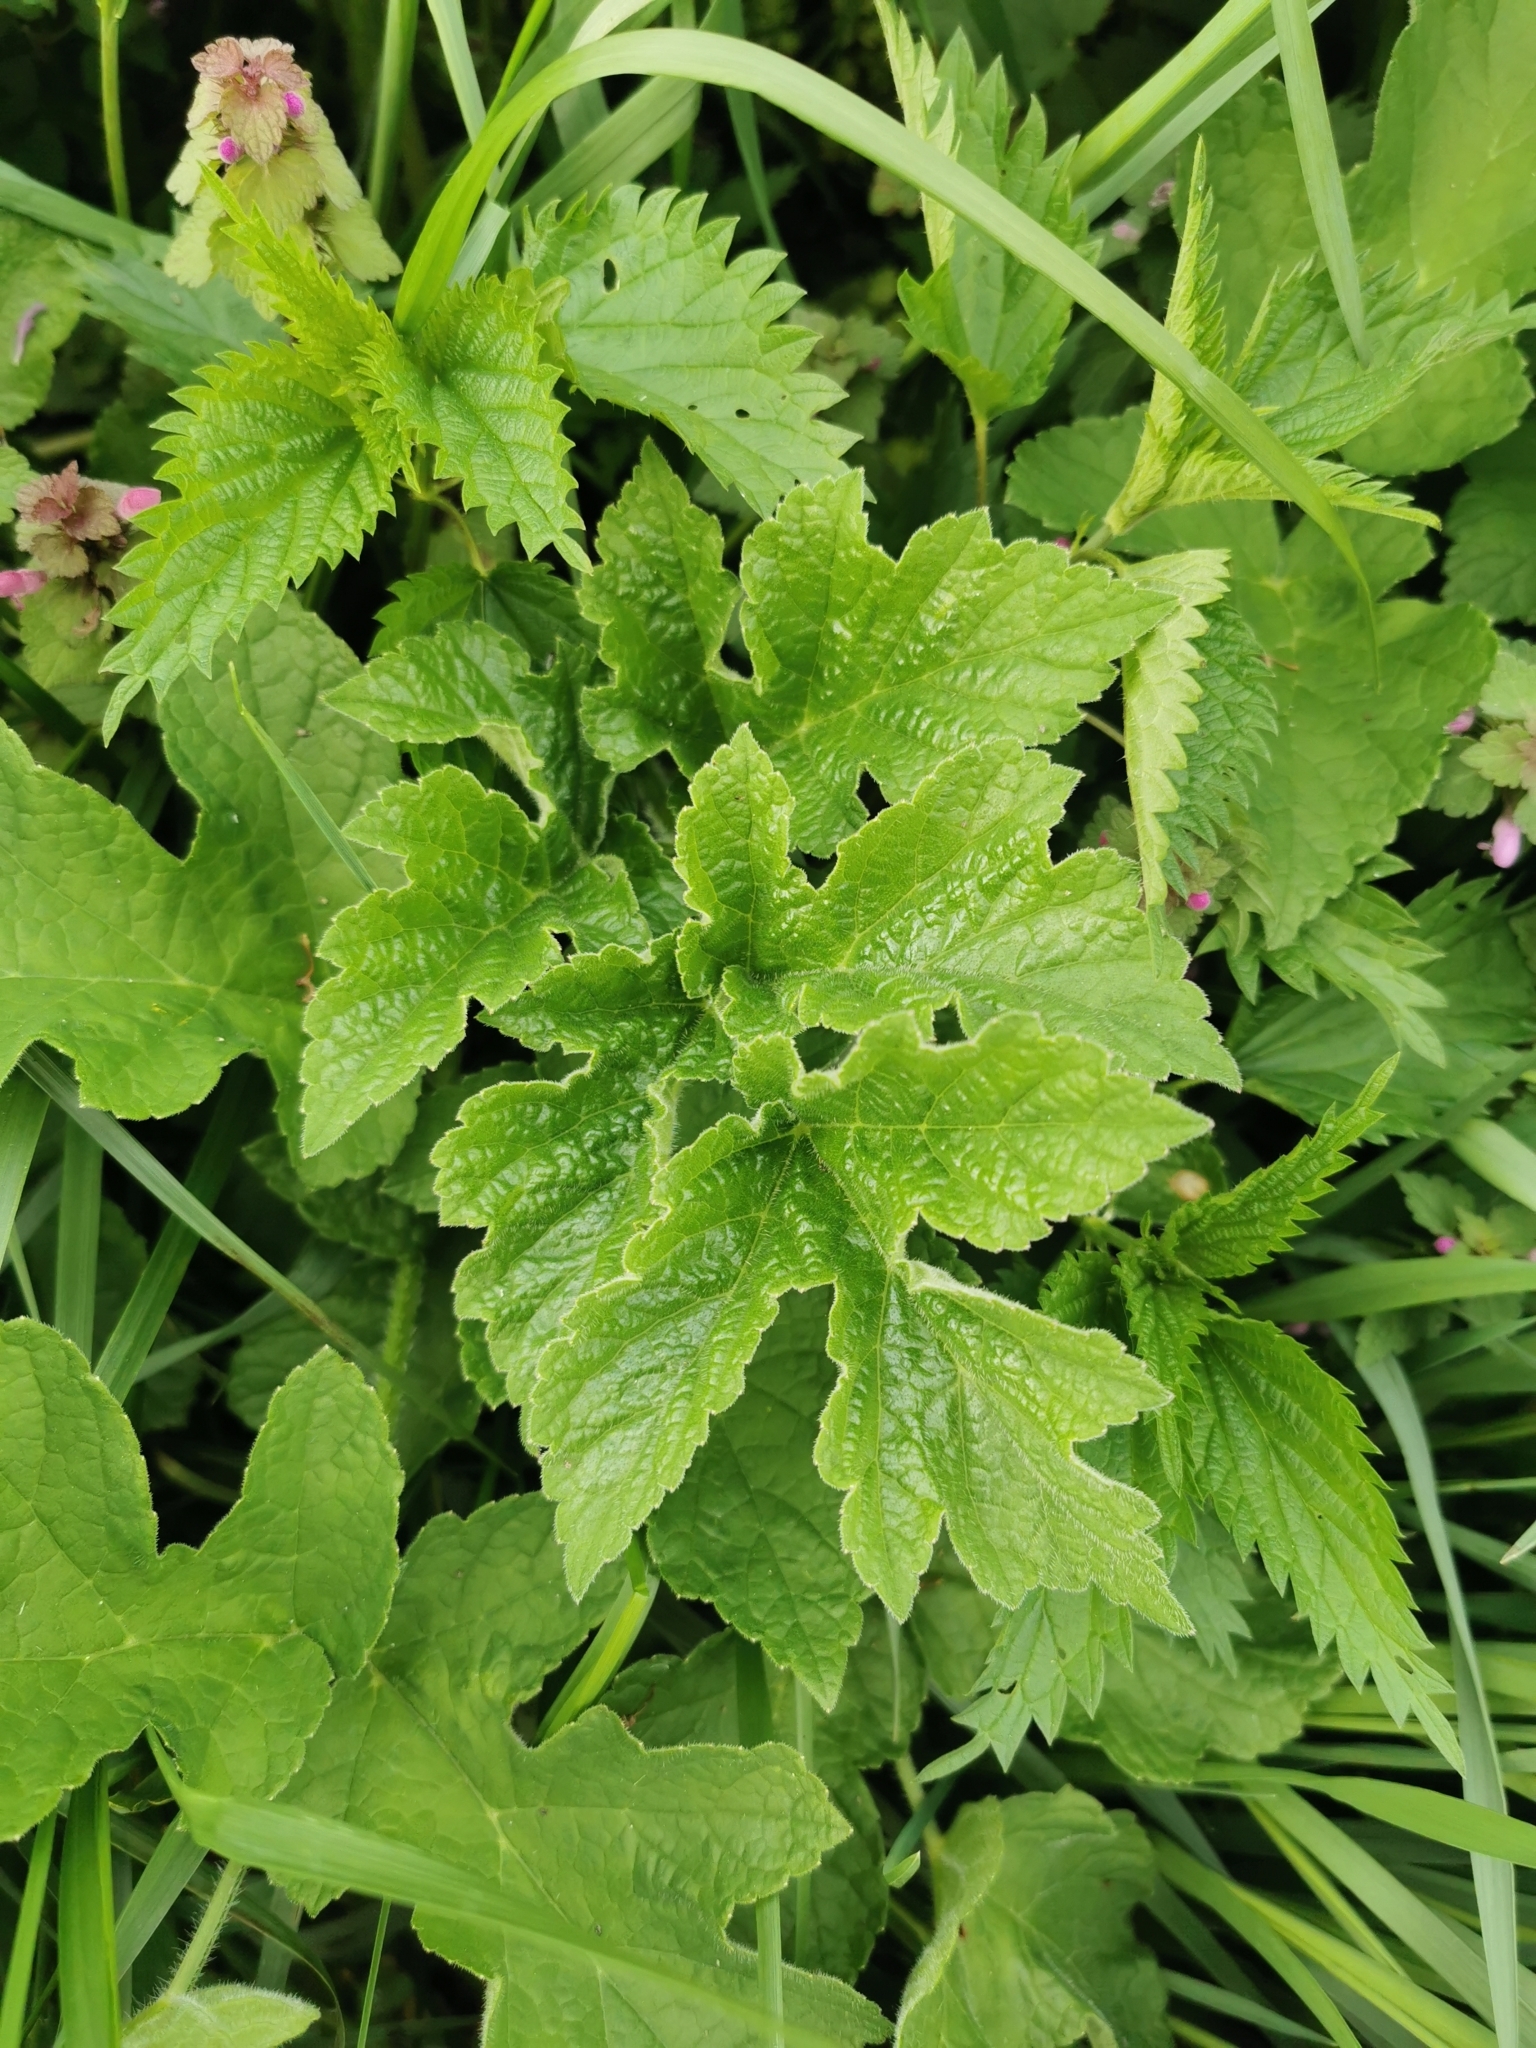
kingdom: Plantae
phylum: Tracheophyta
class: Magnoliopsida
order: Apiales
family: Apiaceae
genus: Heracleum
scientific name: Heracleum sphondylium
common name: Hogweed
